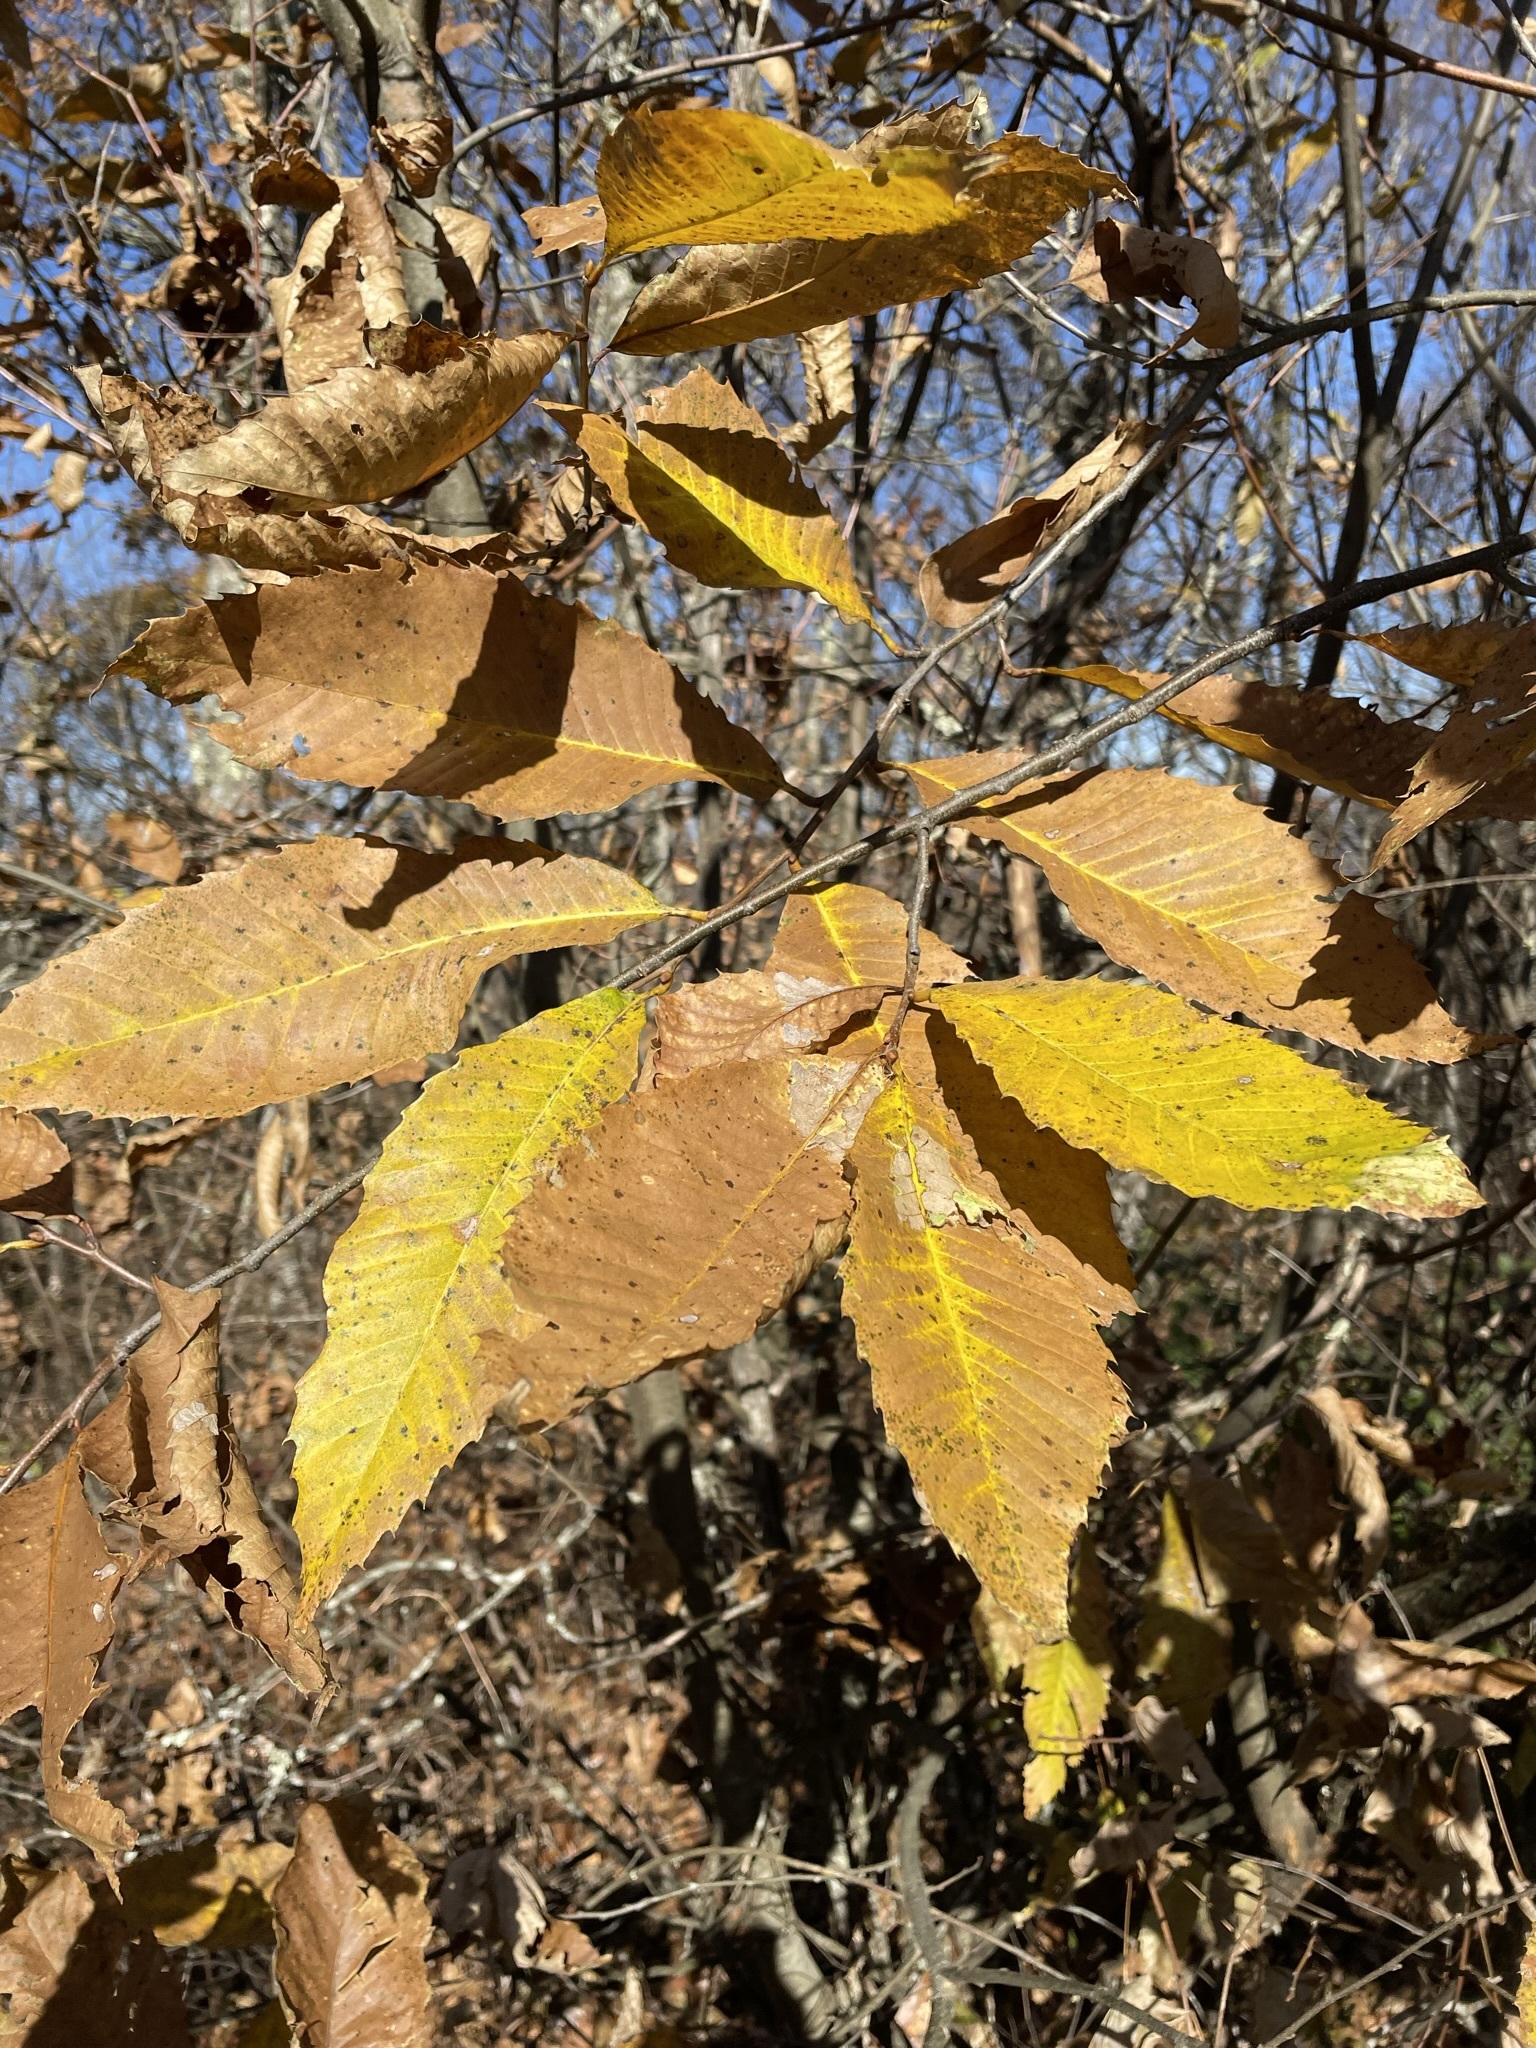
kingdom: Plantae
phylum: Tracheophyta
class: Magnoliopsida
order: Fagales
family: Fagaceae
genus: Castanea
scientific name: Castanea dentata
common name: American chestnut
